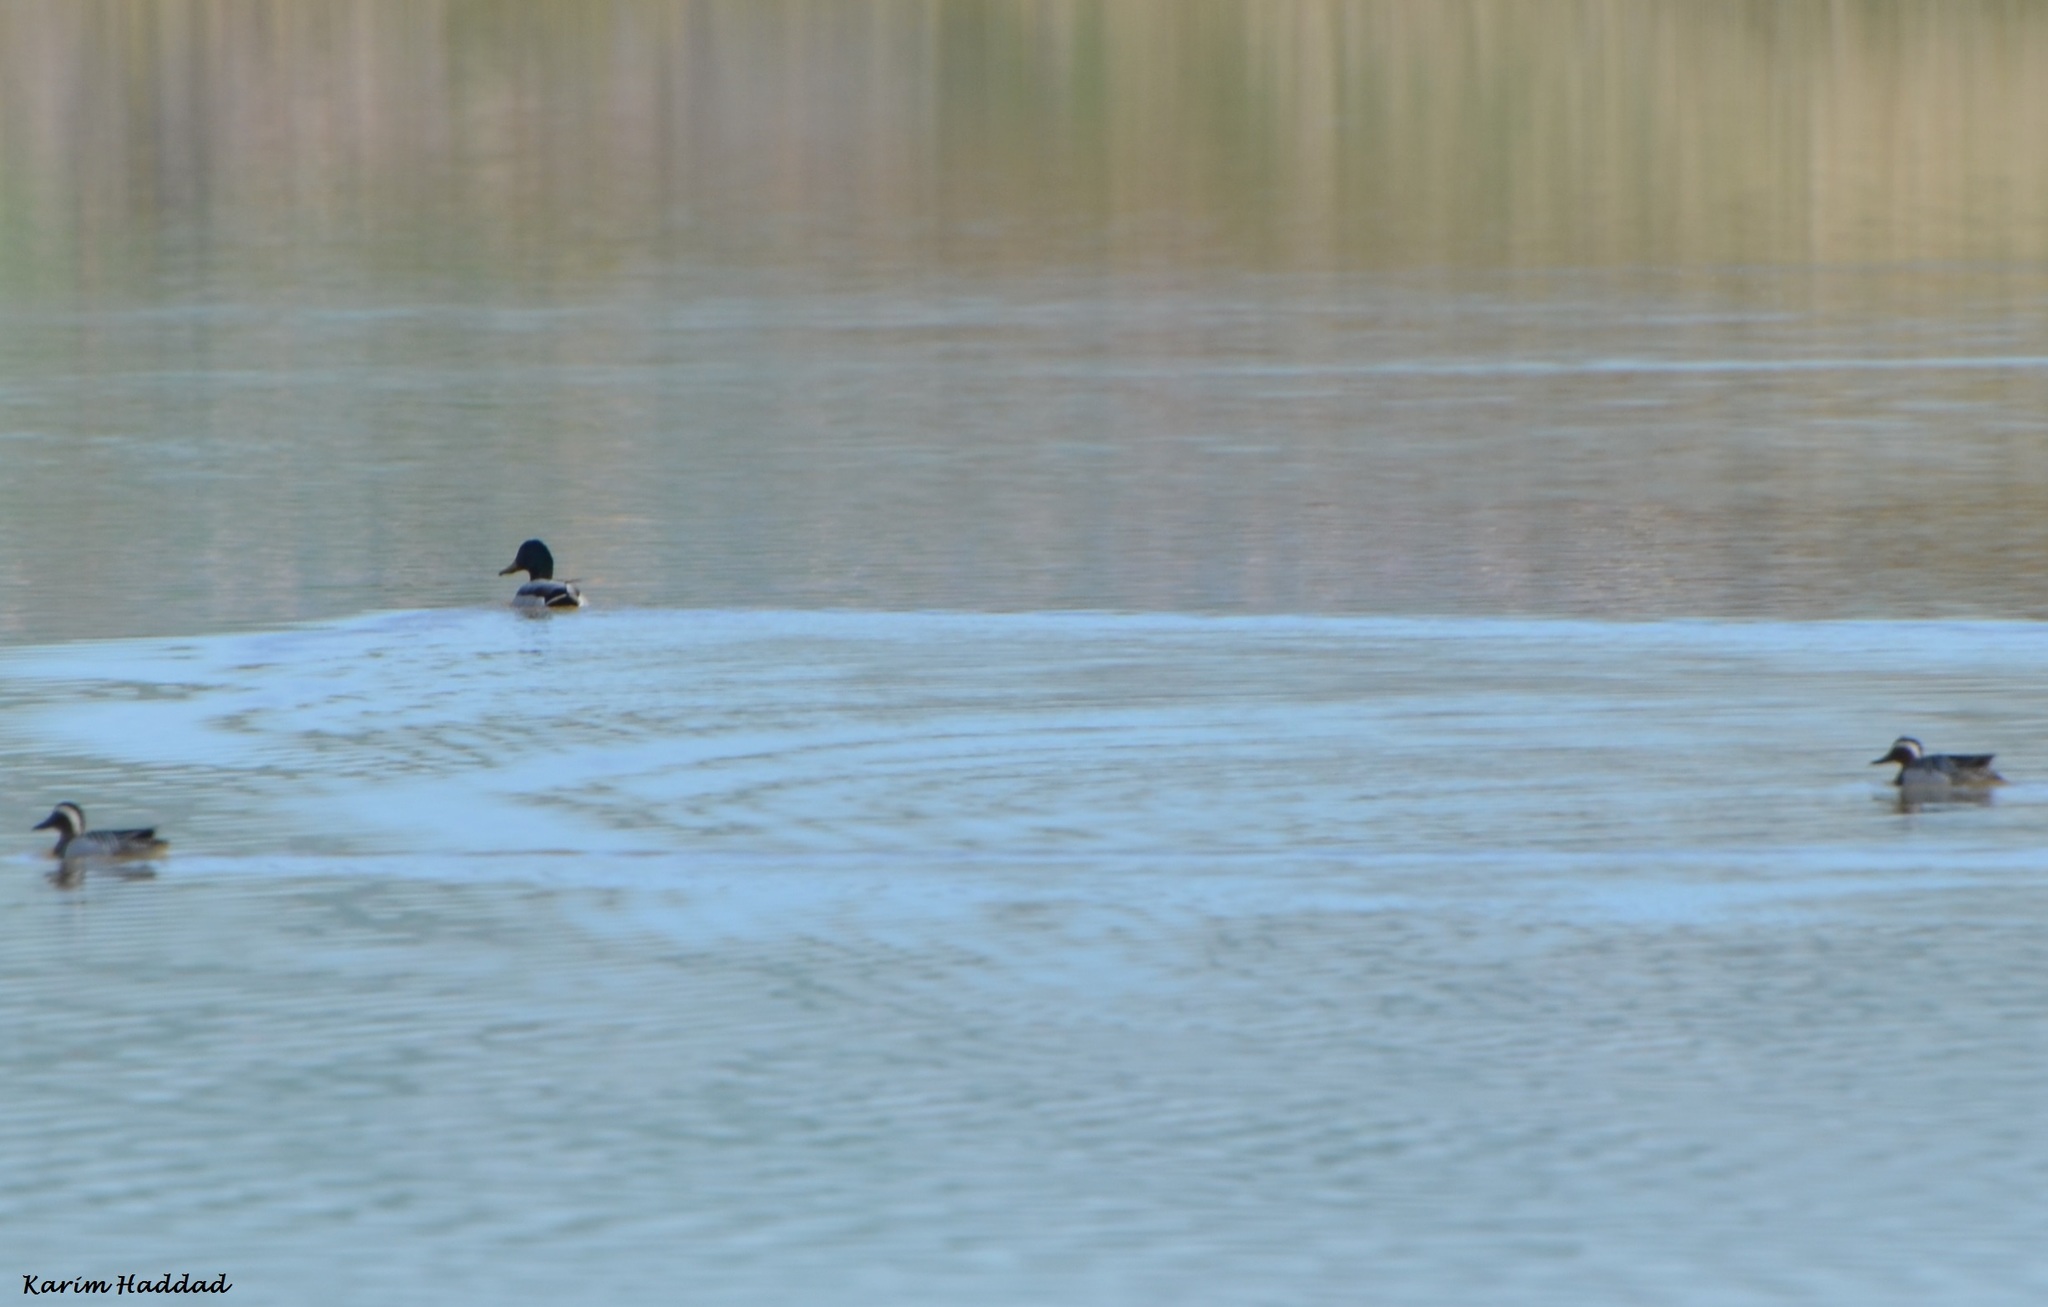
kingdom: Animalia
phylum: Chordata
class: Aves
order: Anseriformes
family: Anatidae
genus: Spatula
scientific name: Spatula querquedula
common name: Garganey
